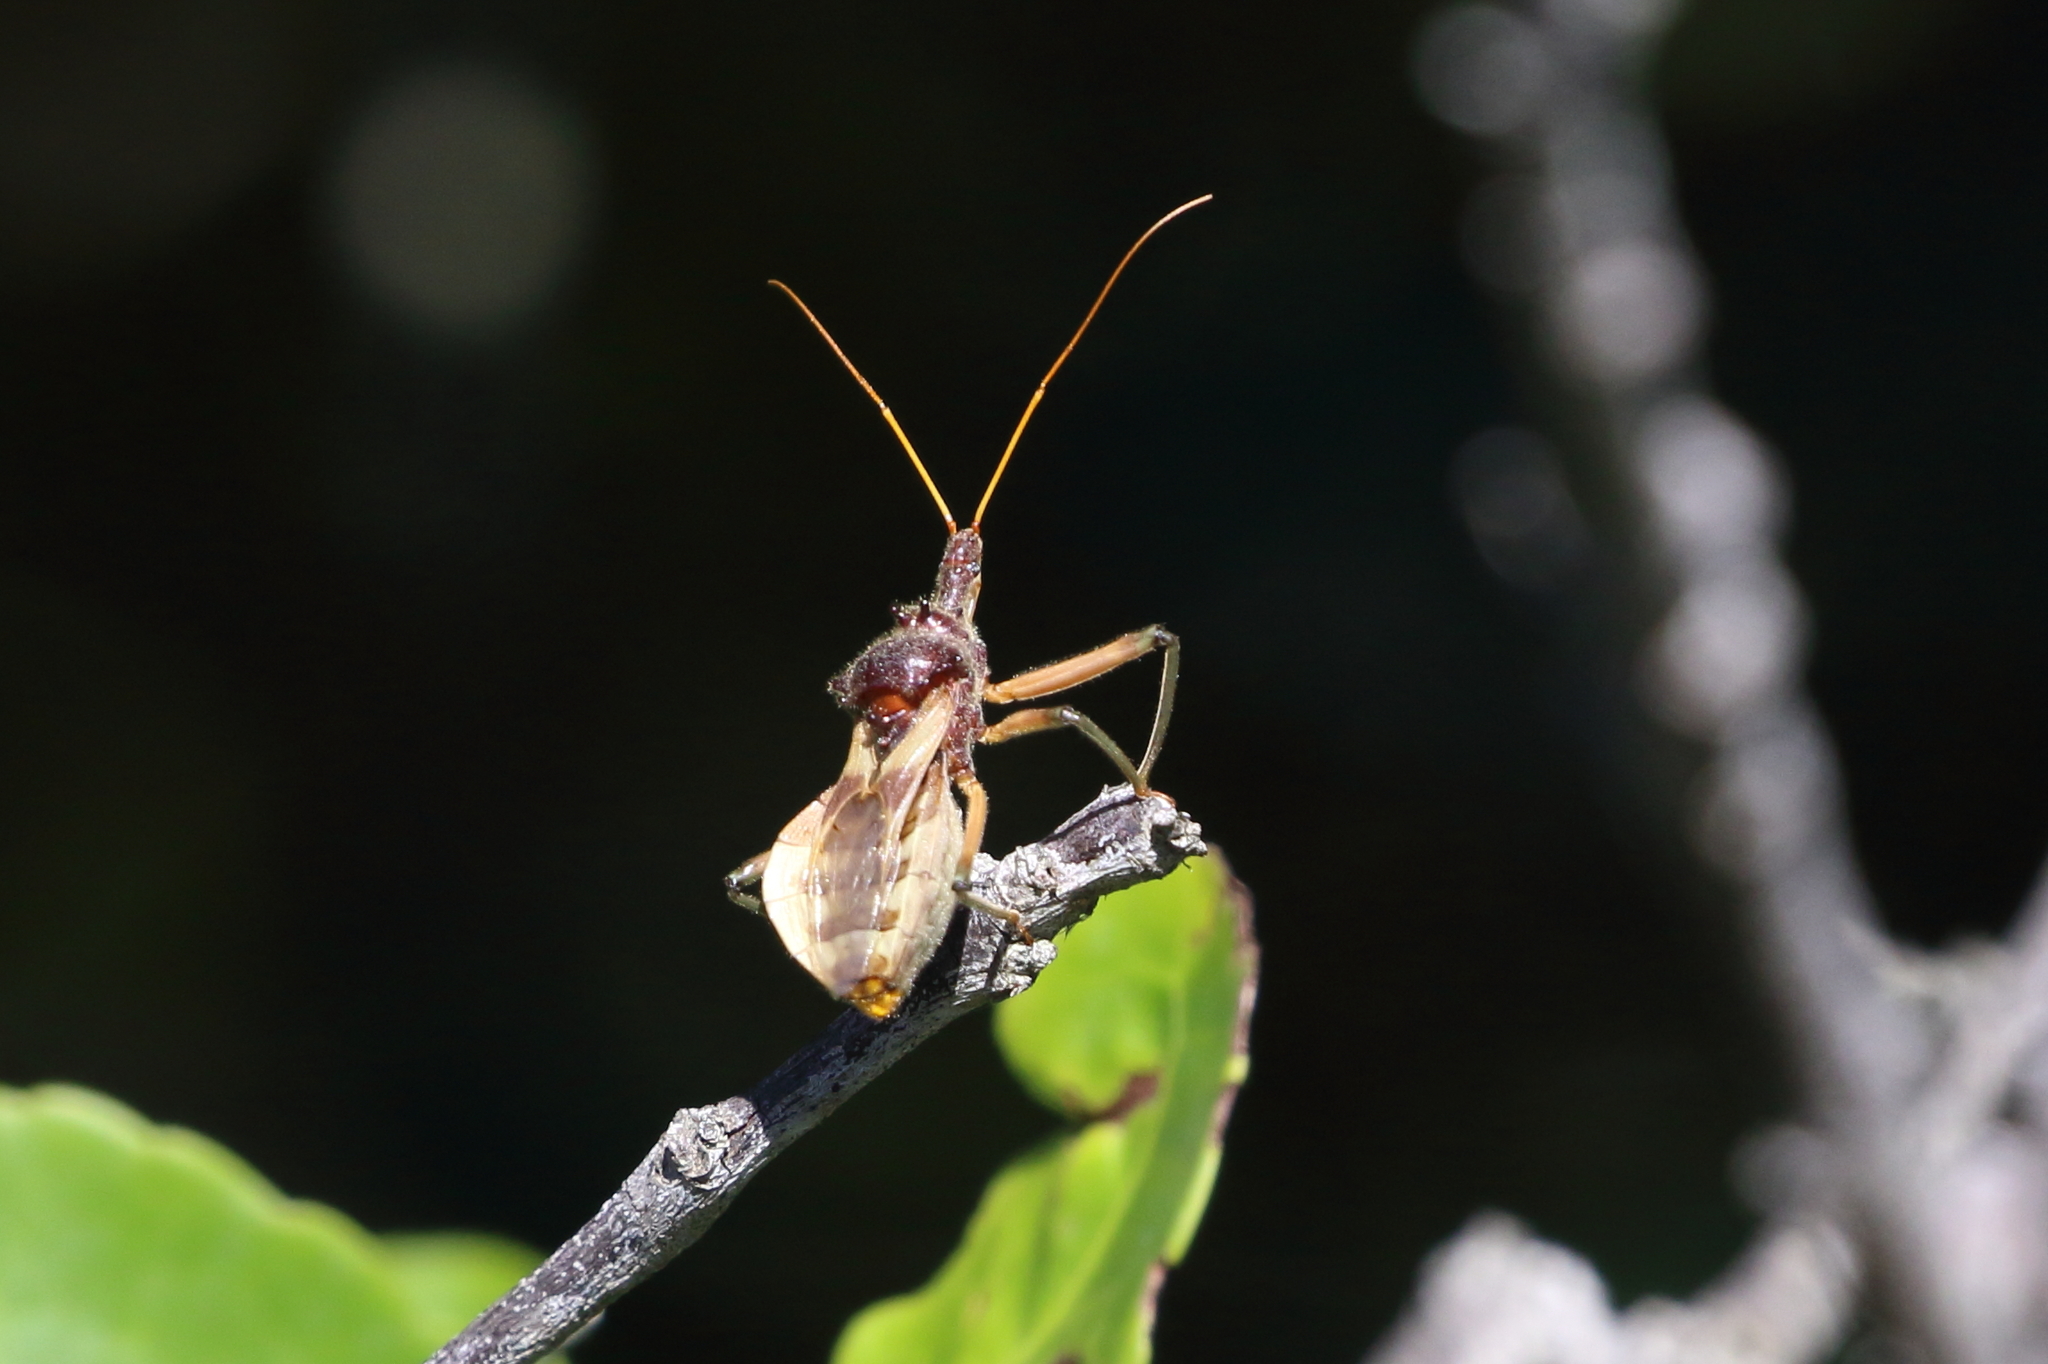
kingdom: Animalia
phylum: Arthropoda
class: Insecta
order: Hemiptera
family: Reduviidae
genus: Pristhesancus
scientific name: Pristhesancus plagipennis
